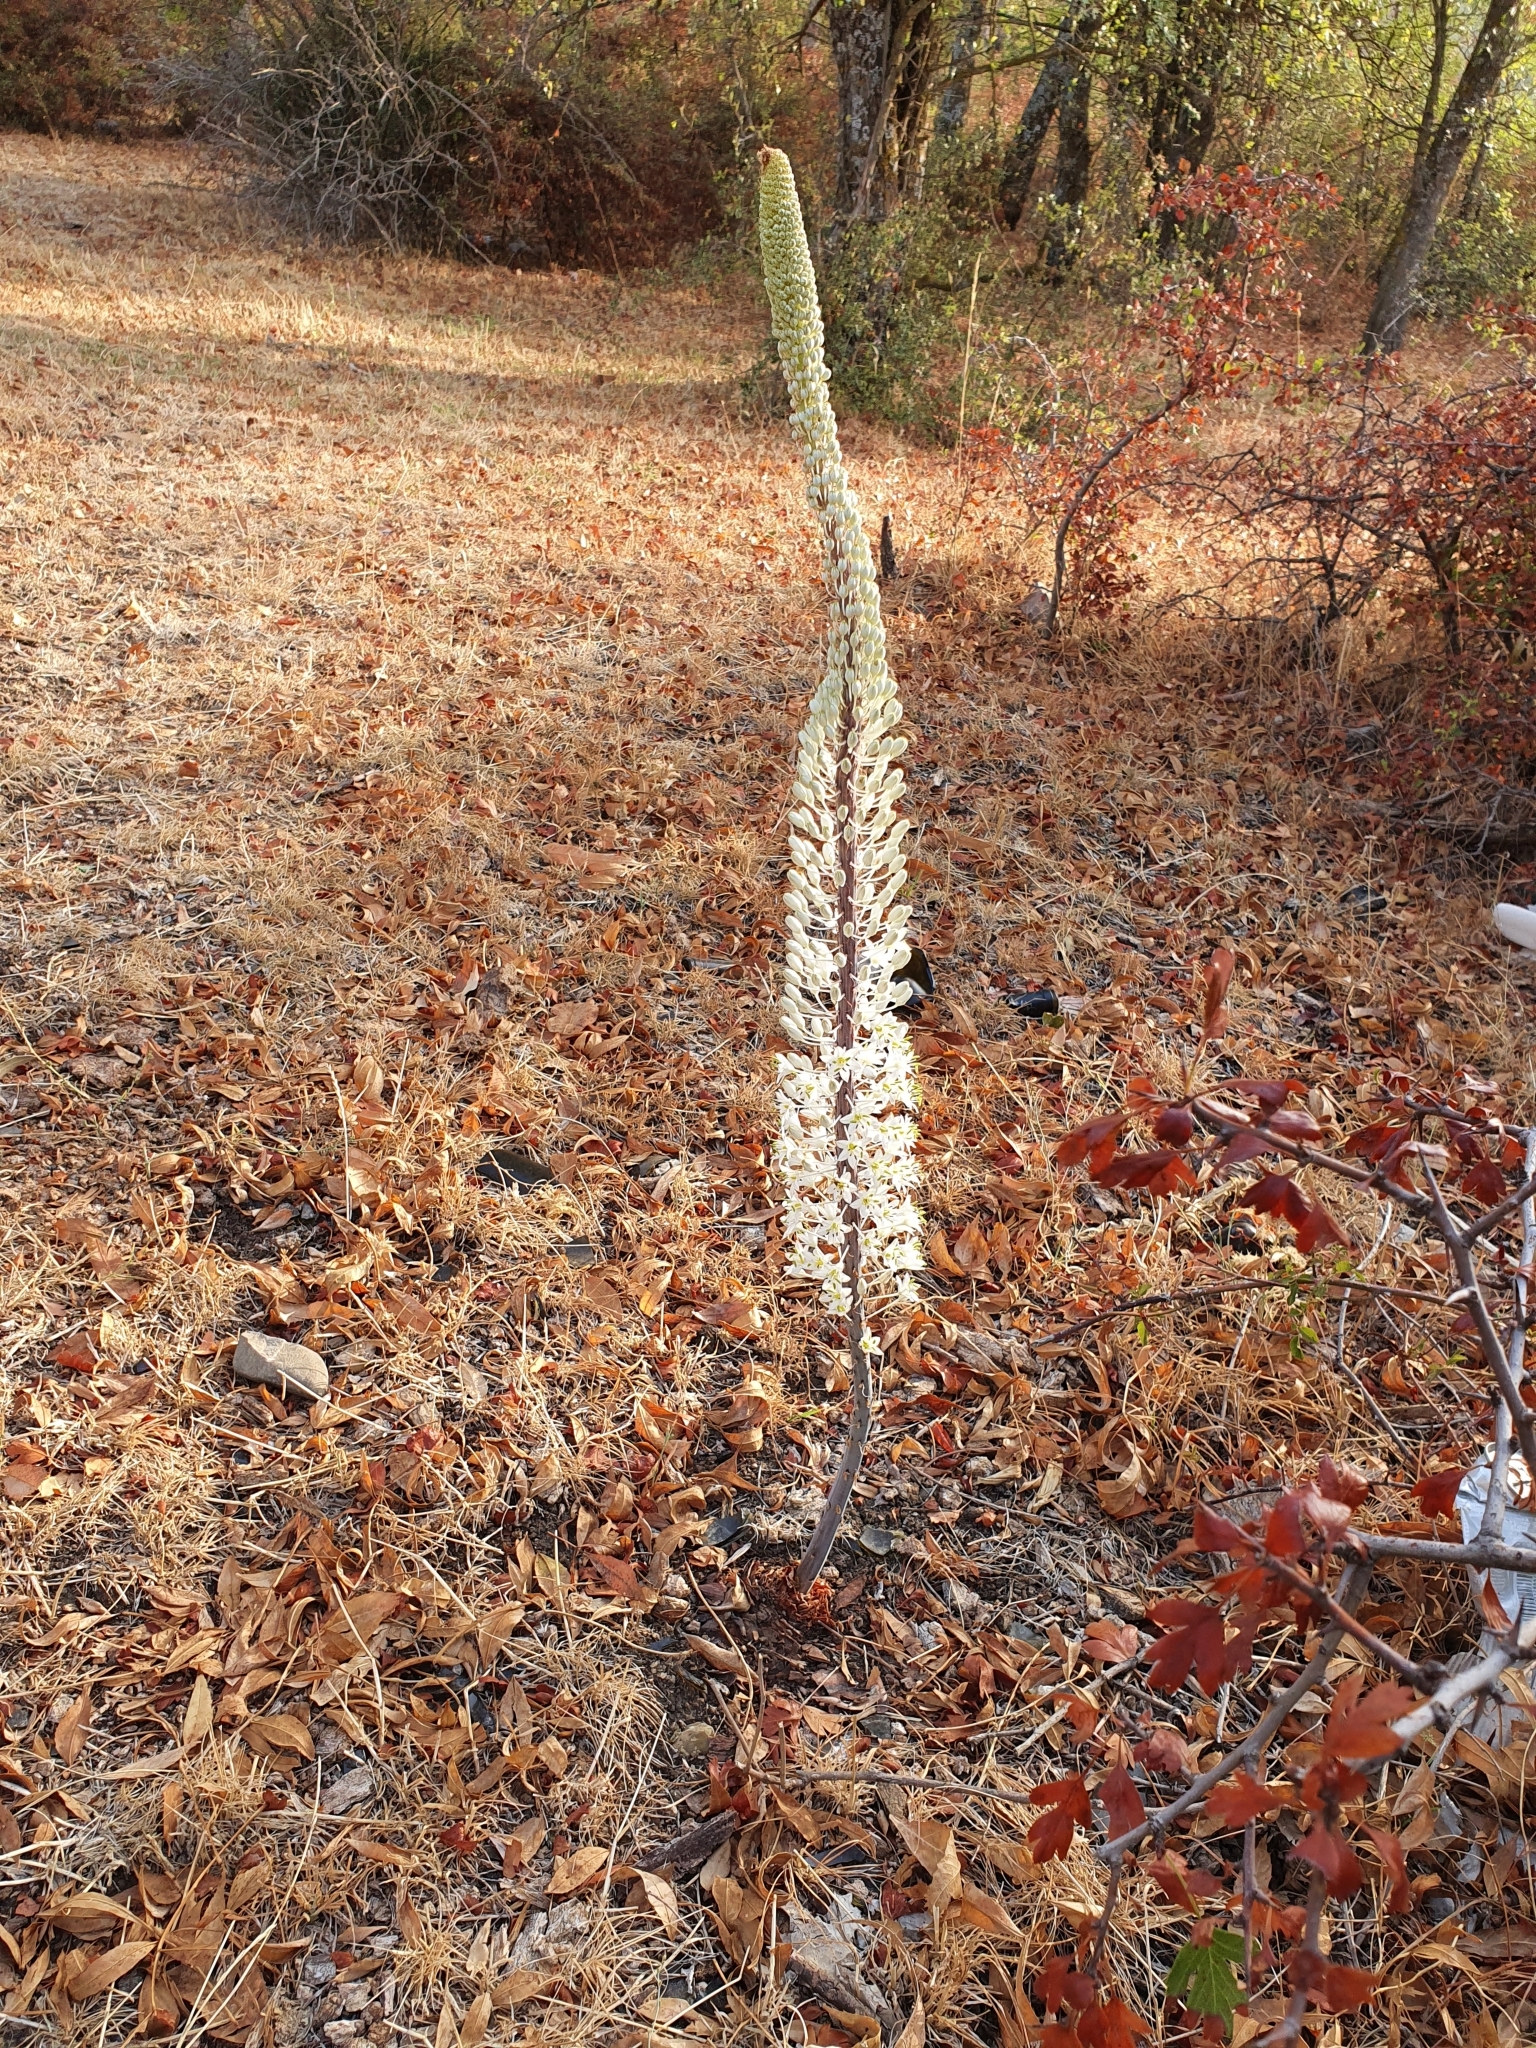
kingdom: Plantae
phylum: Tracheophyta
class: Liliopsida
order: Asparagales
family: Asparagaceae
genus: Drimia
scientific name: Drimia numidica
